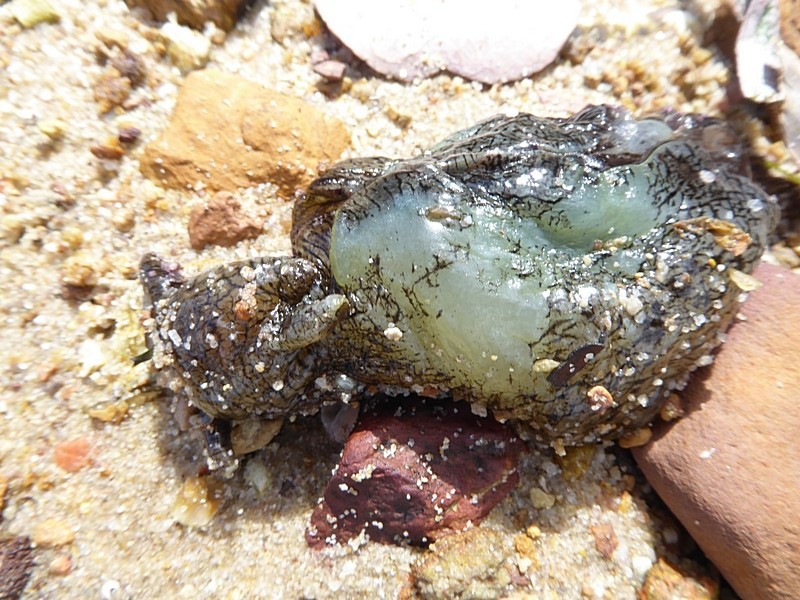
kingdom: Animalia
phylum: Mollusca
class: Gastropoda
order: Aplysiida
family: Aplysiidae
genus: Aplysia
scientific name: Aplysia sydneyensis
